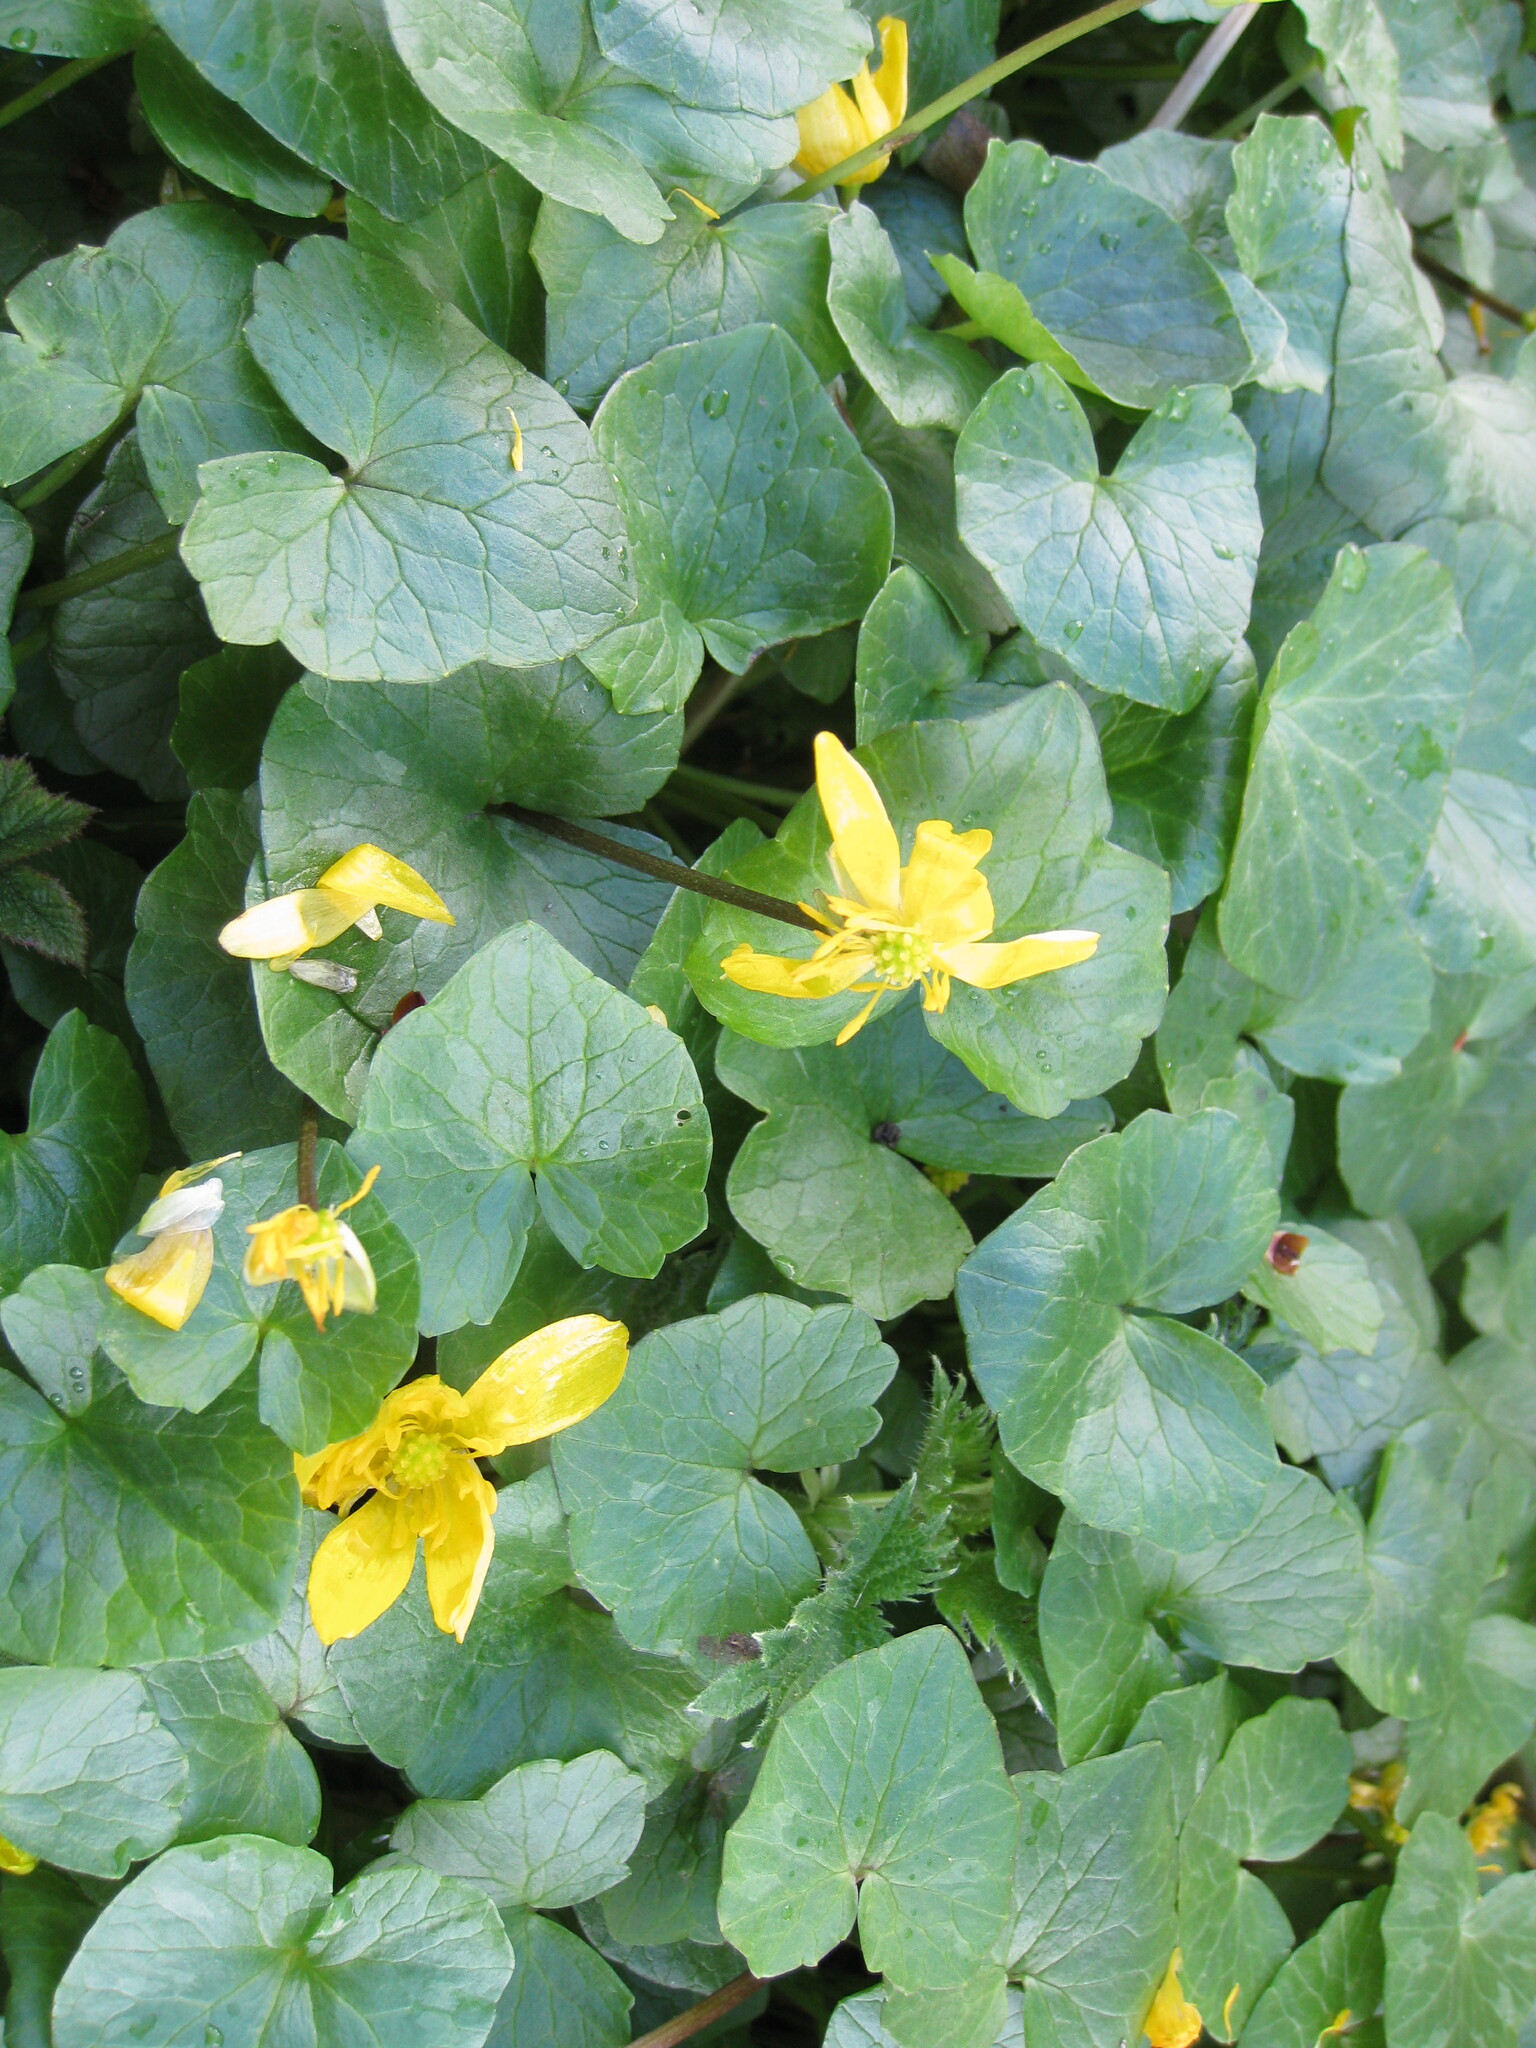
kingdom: Plantae
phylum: Tracheophyta
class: Magnoliopsida
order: Ranunculales
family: Ranunculaceae
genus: Ficaria
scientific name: Ficaria verna
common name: Lesser celandine
